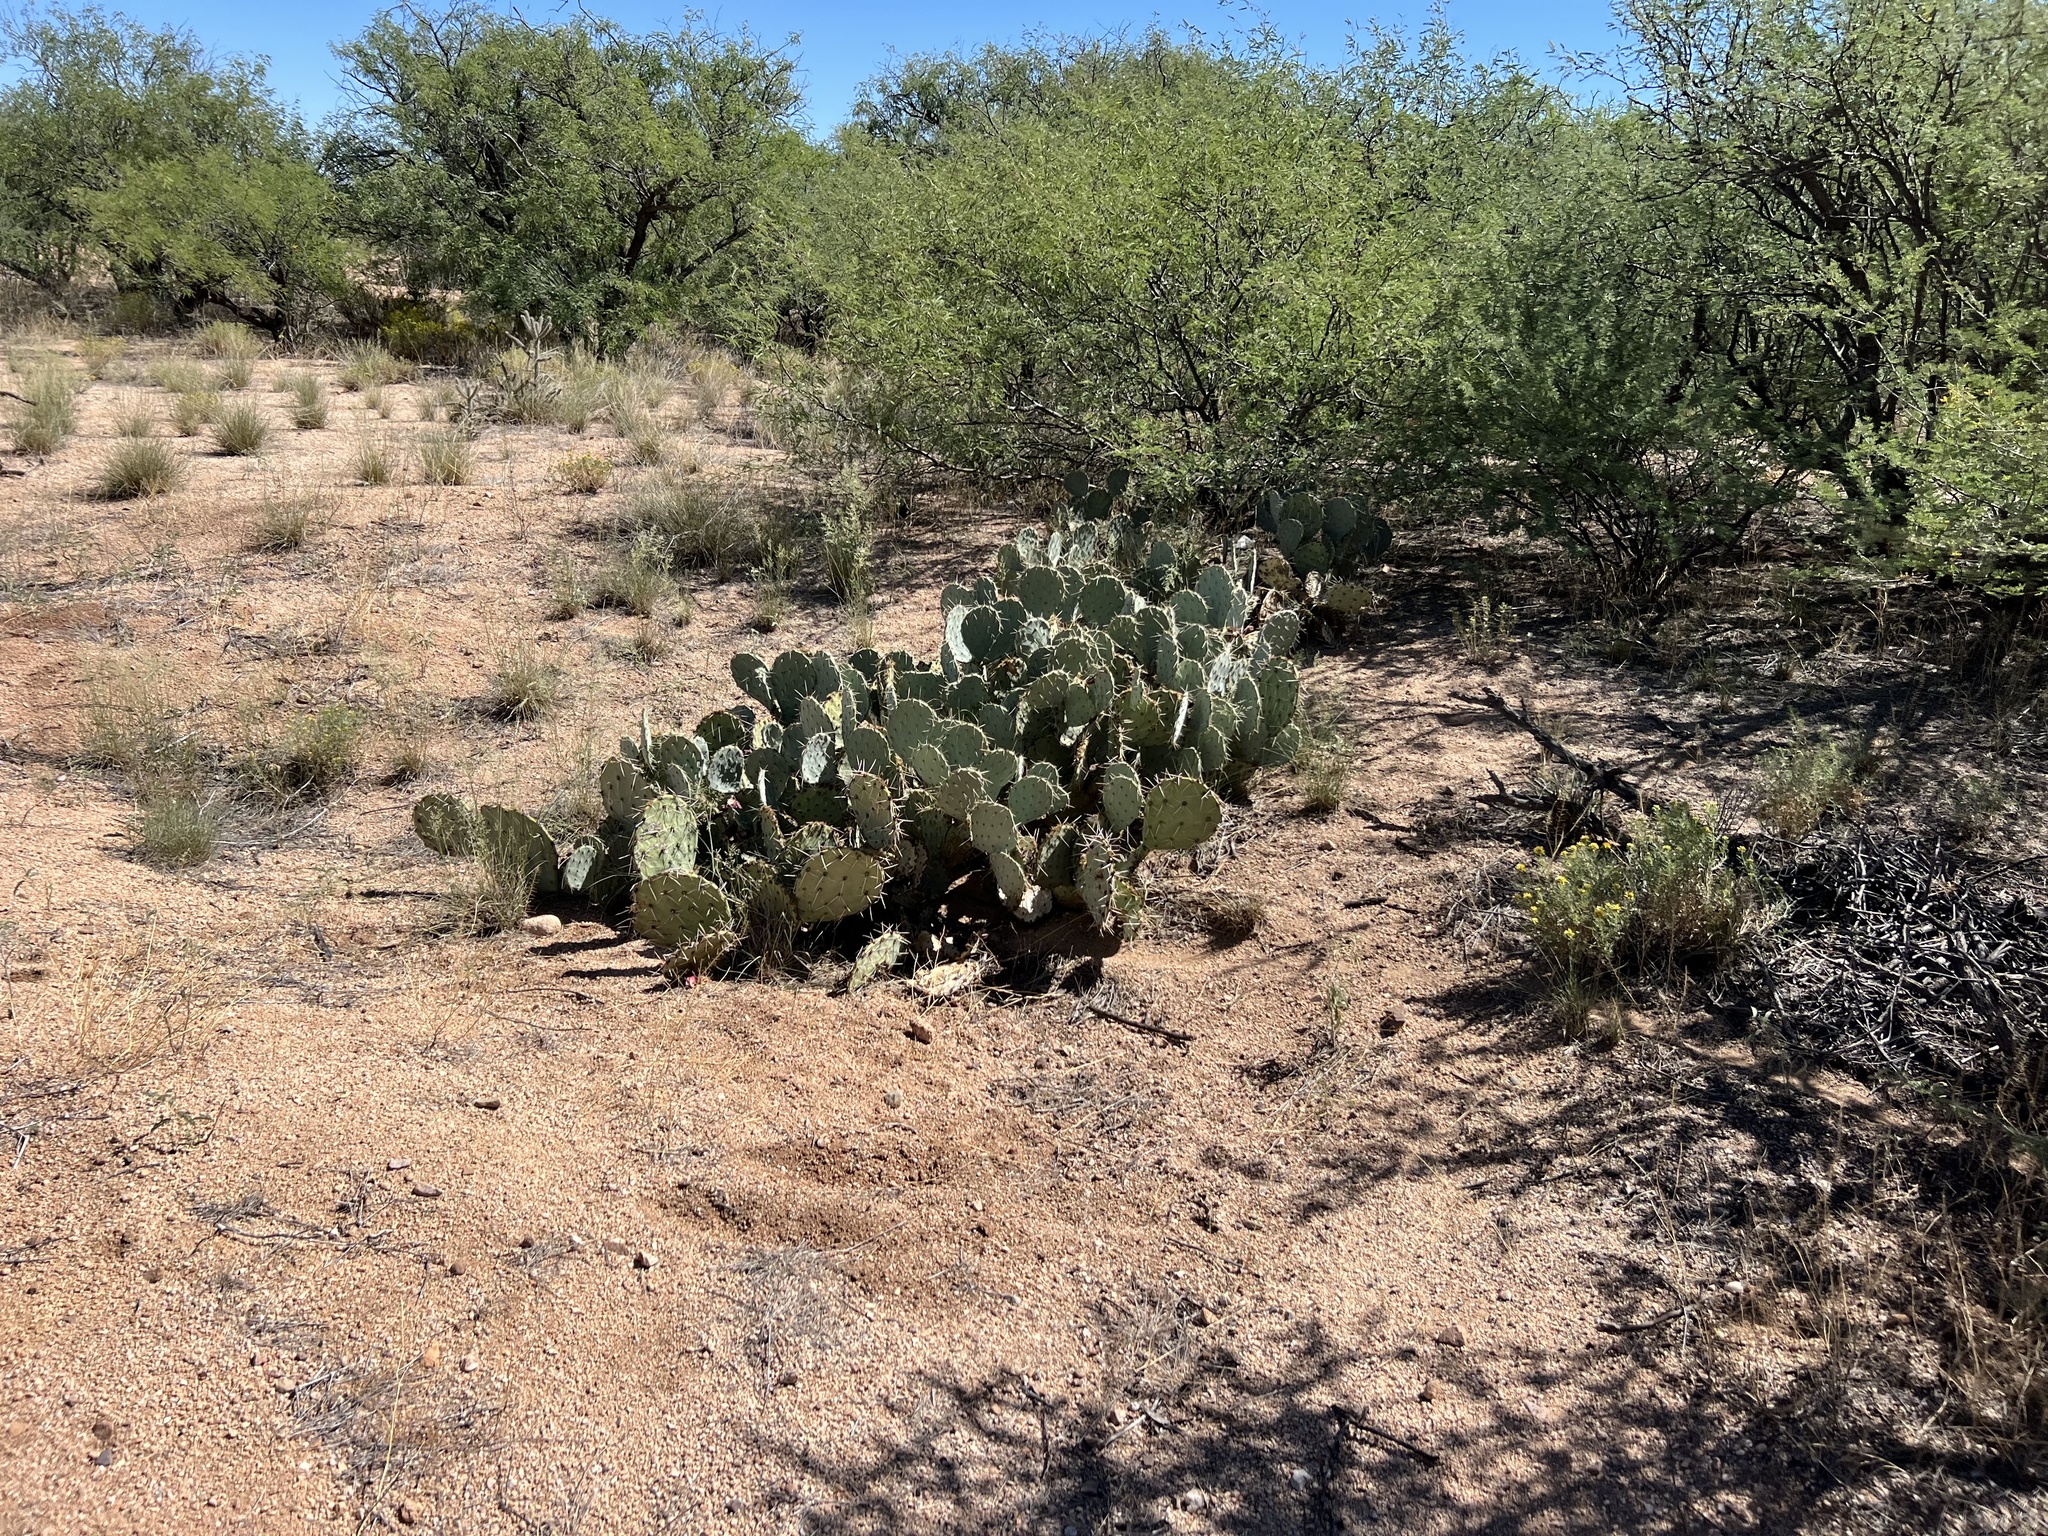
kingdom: Plantae
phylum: Tracheophyta
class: Magnoliopsida
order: Caryophyllales
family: Cactaceae
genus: Opuntia
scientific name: Opuntia engelmannii
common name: Cactus-apple
